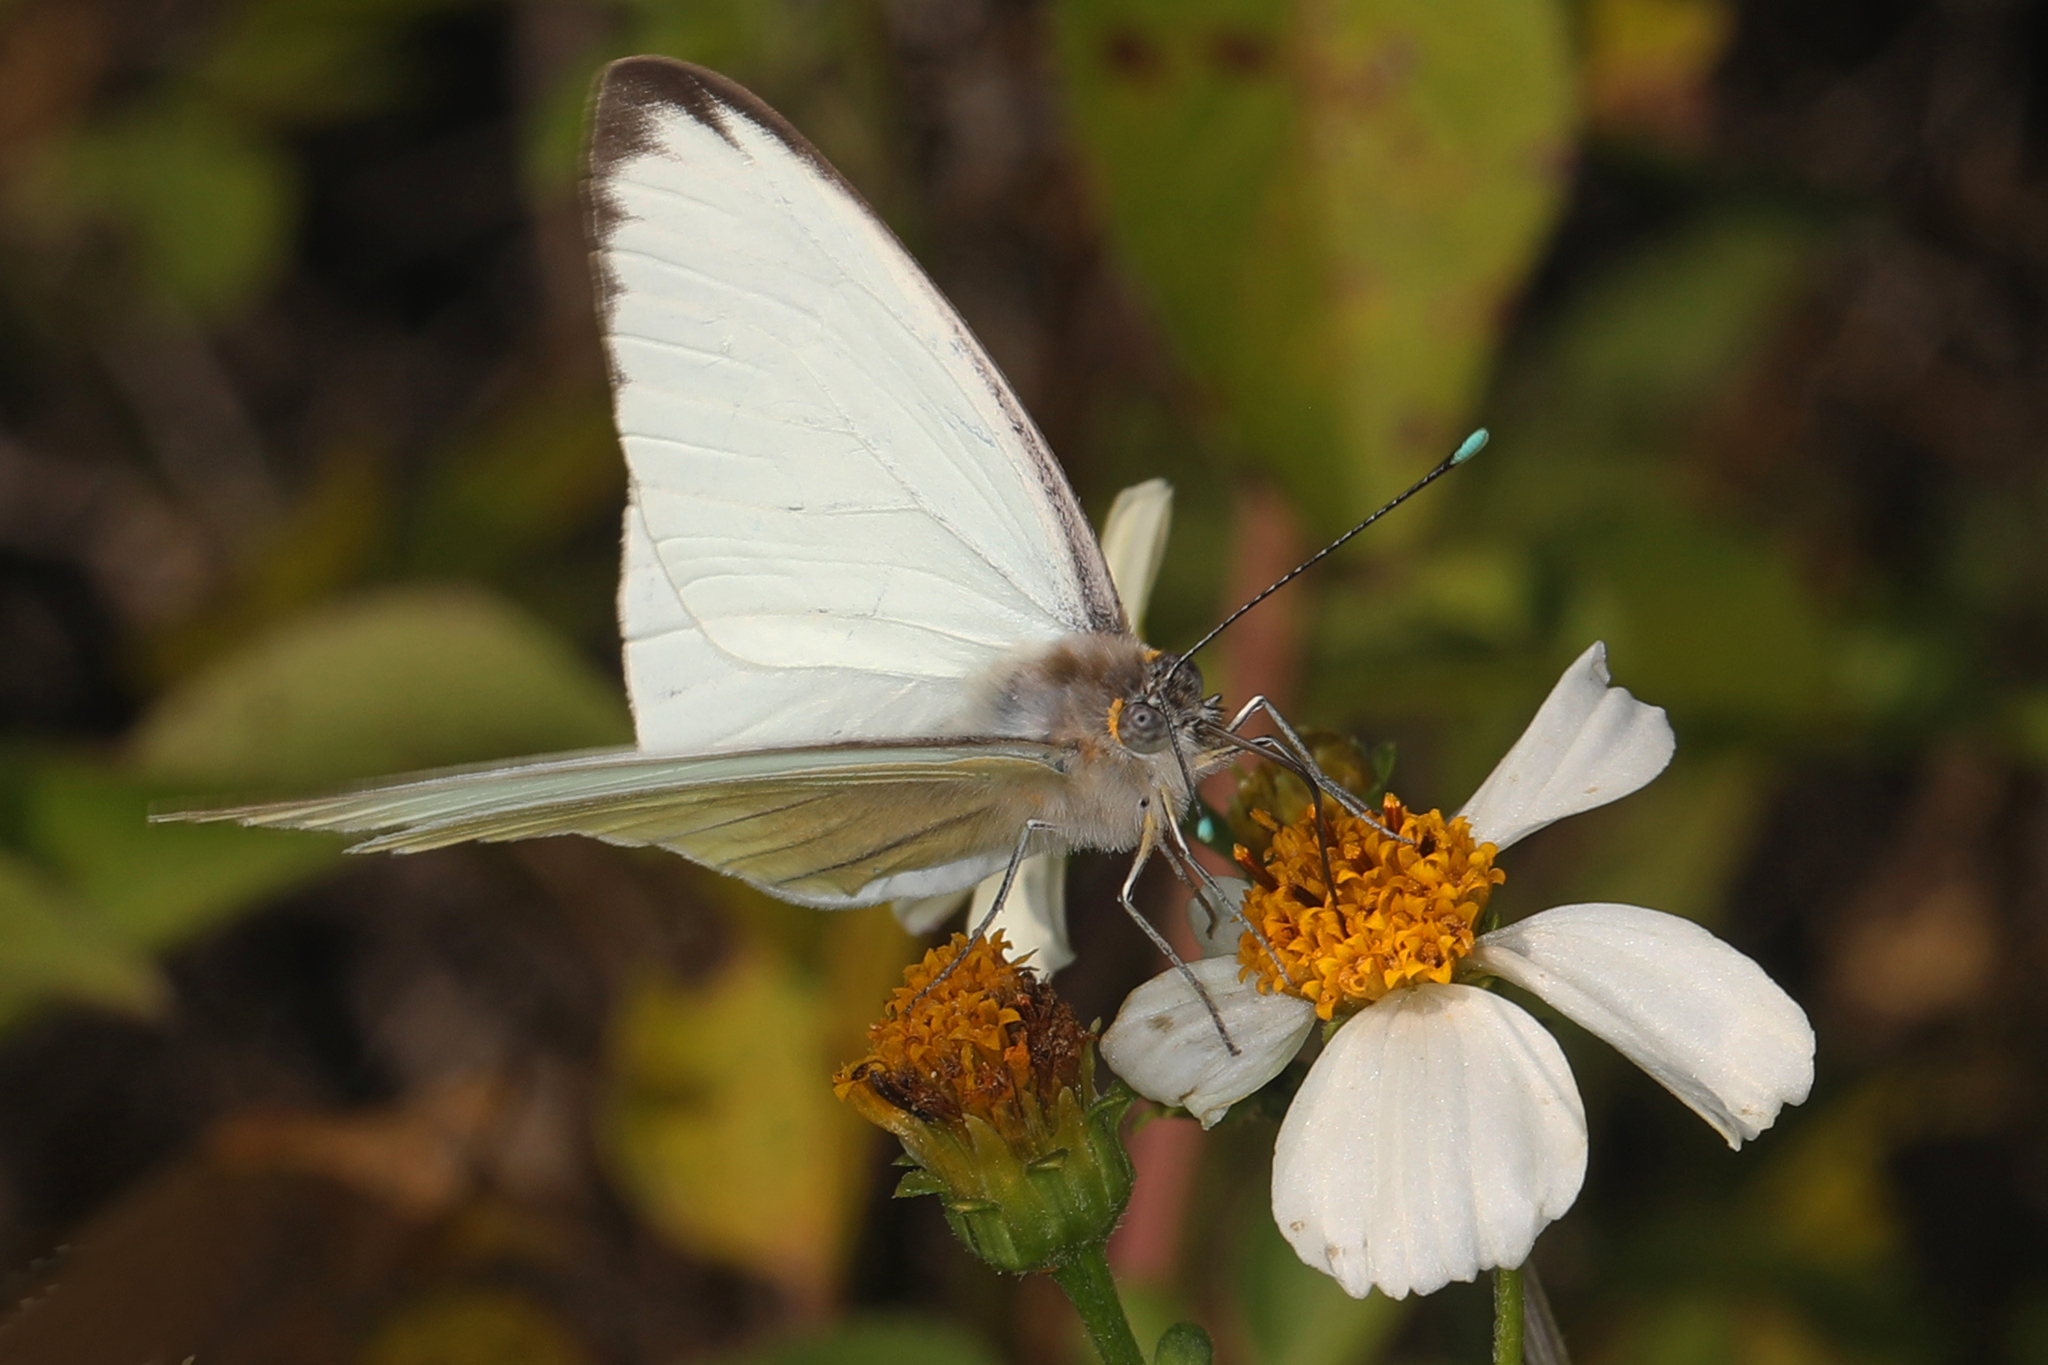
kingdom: Animalia
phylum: Arthropoda
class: Insecta
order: Lepidoptera
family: Pieridae
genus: Ascia
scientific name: Ascia monuste
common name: Great southern white
